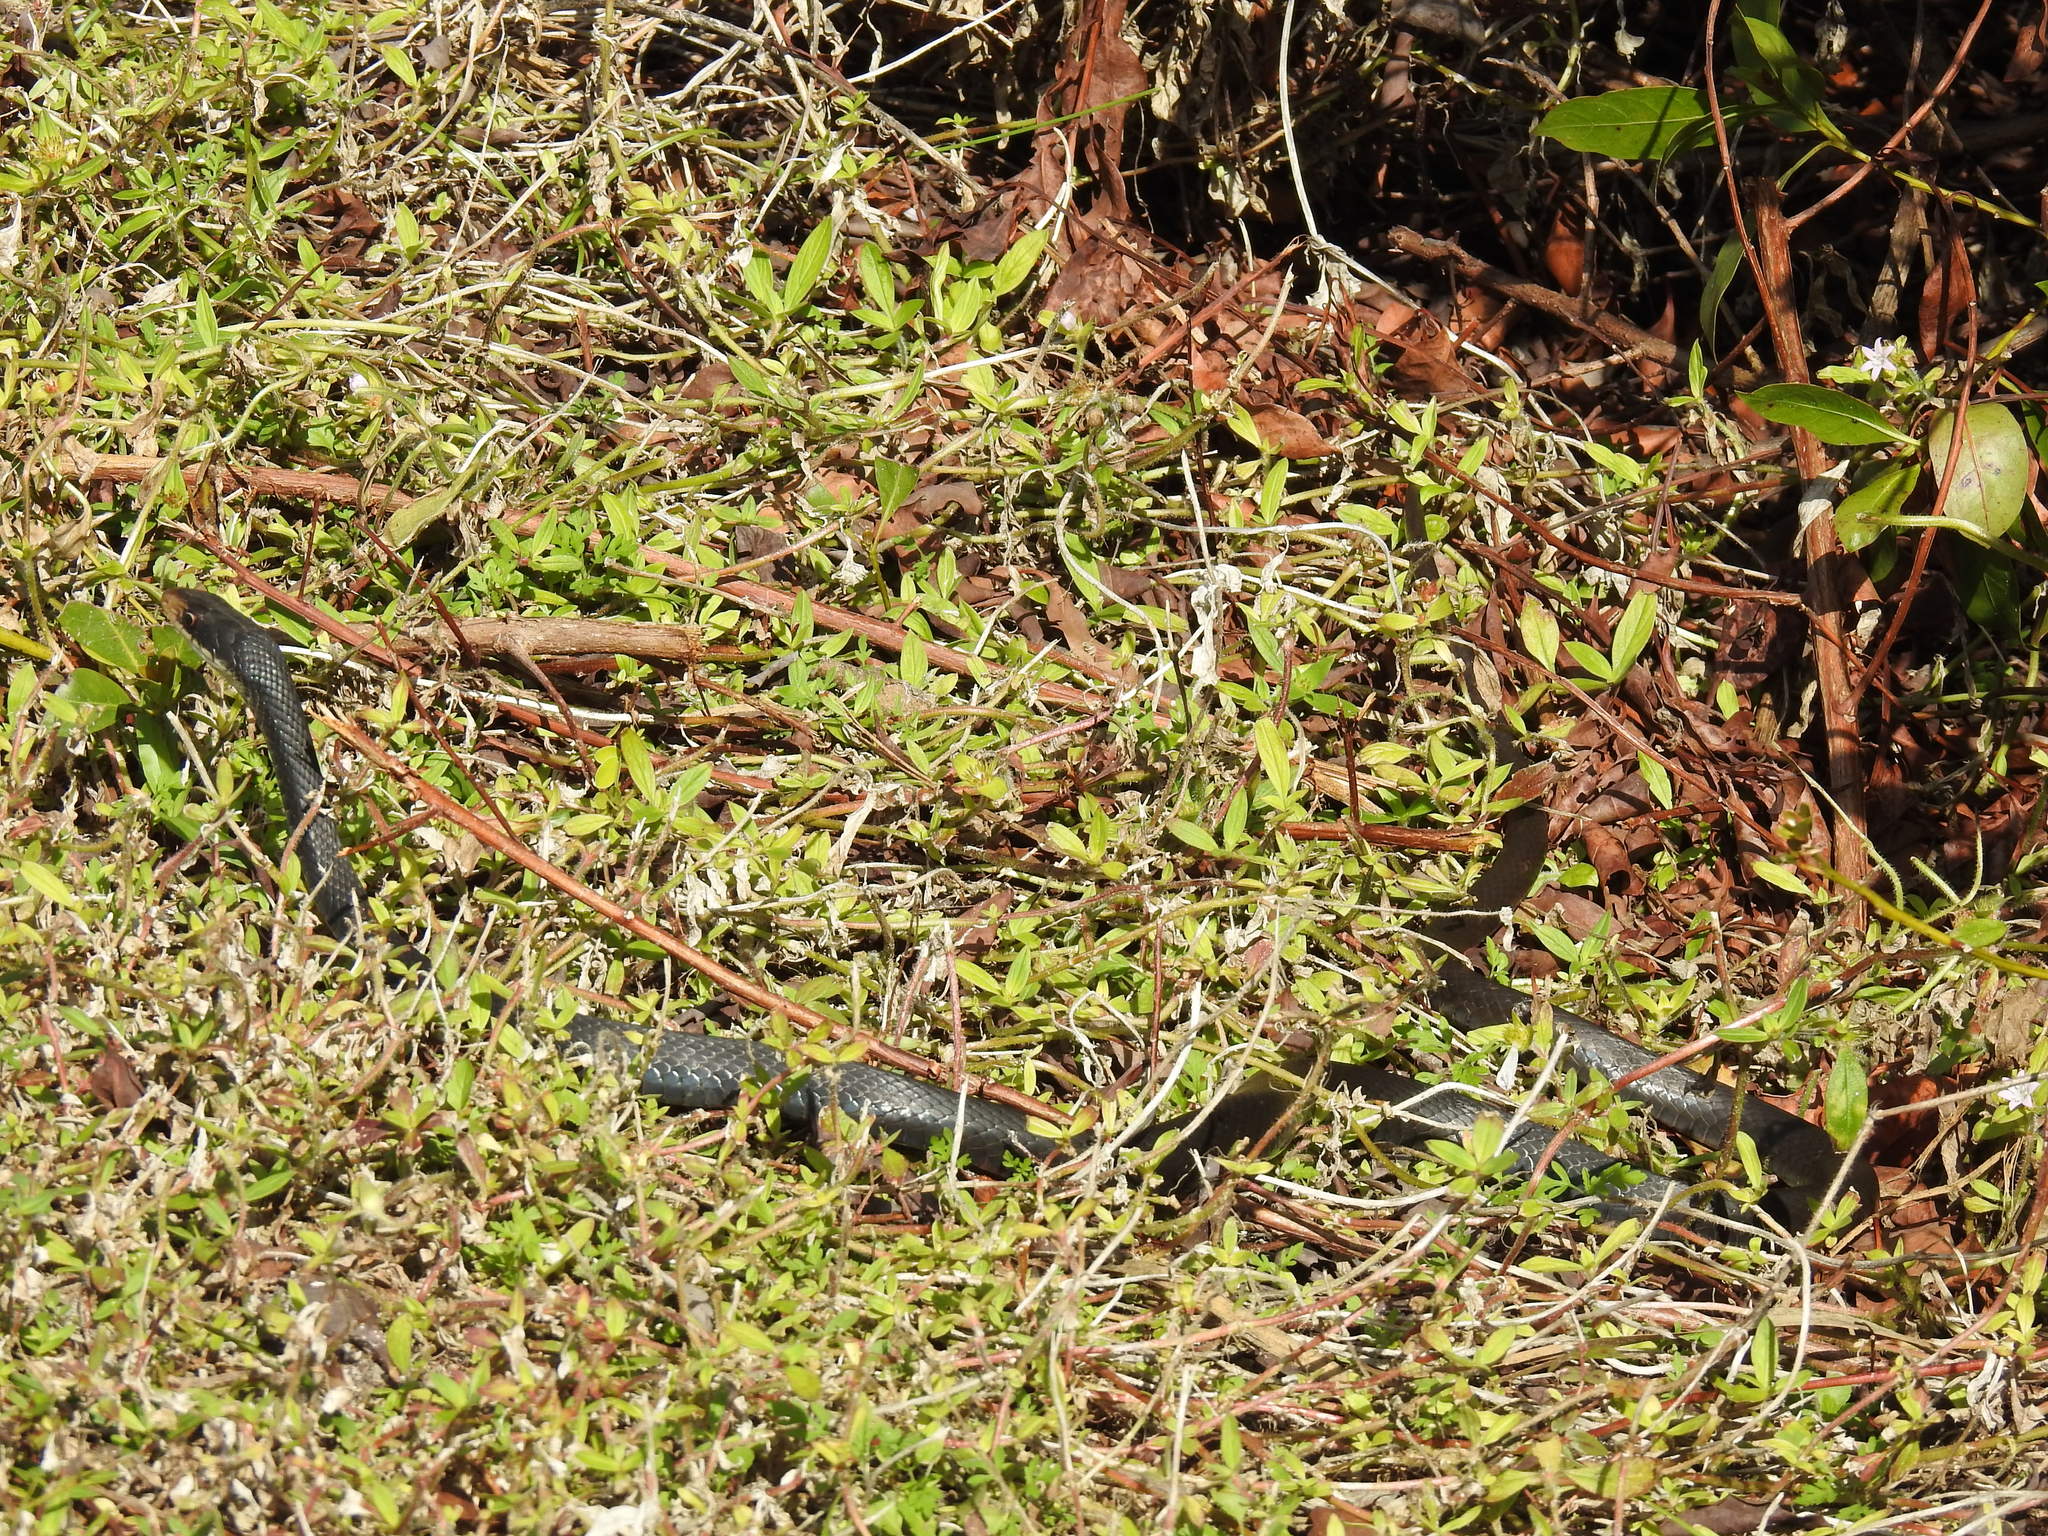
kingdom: Animalia
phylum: Chordata
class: Squamata
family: Colubridae
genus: Coluber
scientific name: Coluber constrictor
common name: Eastern racer
